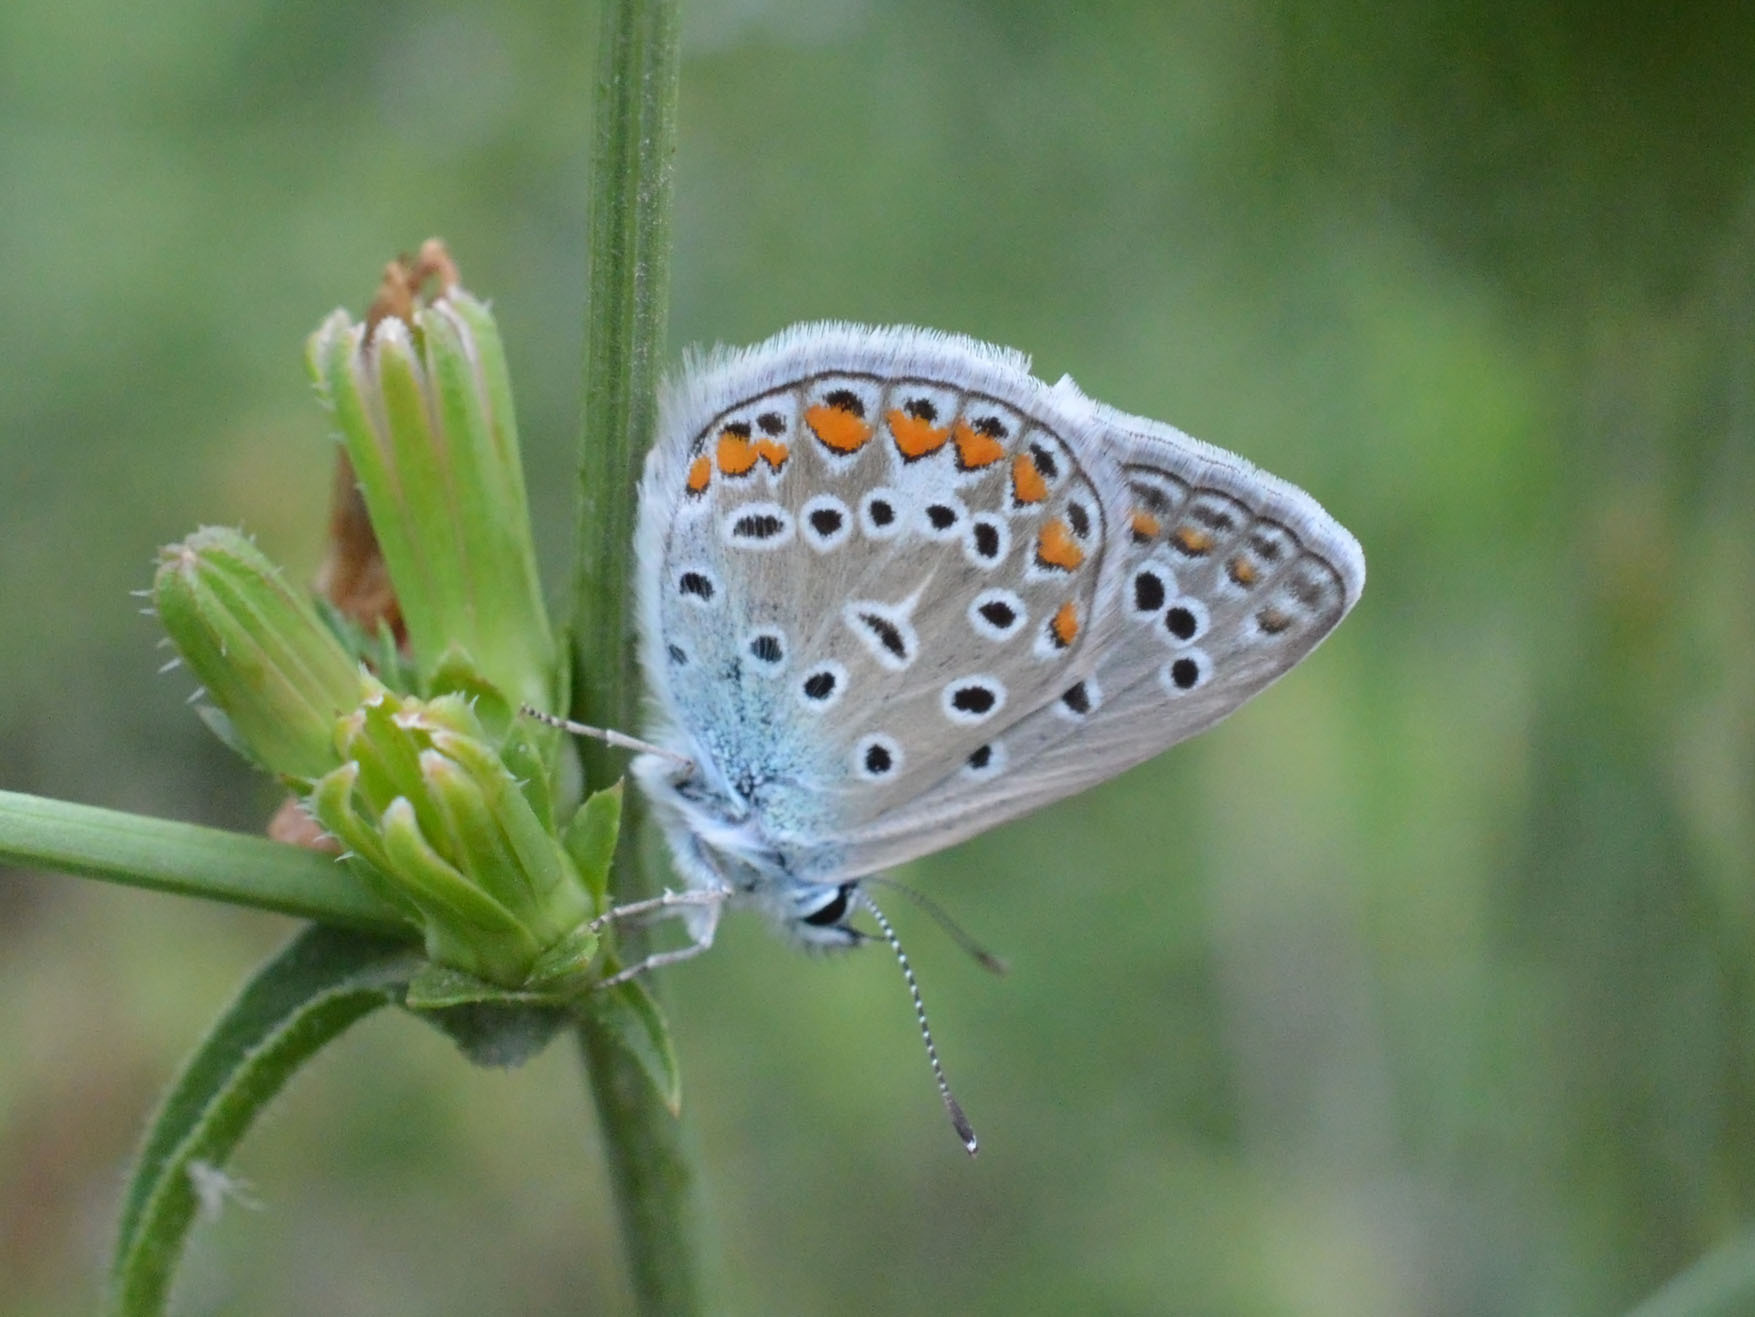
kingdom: Animalia
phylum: Arthropoda
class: Insecta
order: Lepidoptera
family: Lycaenidae
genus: Polyommatus
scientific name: Polyommatus icarus
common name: Common blue
